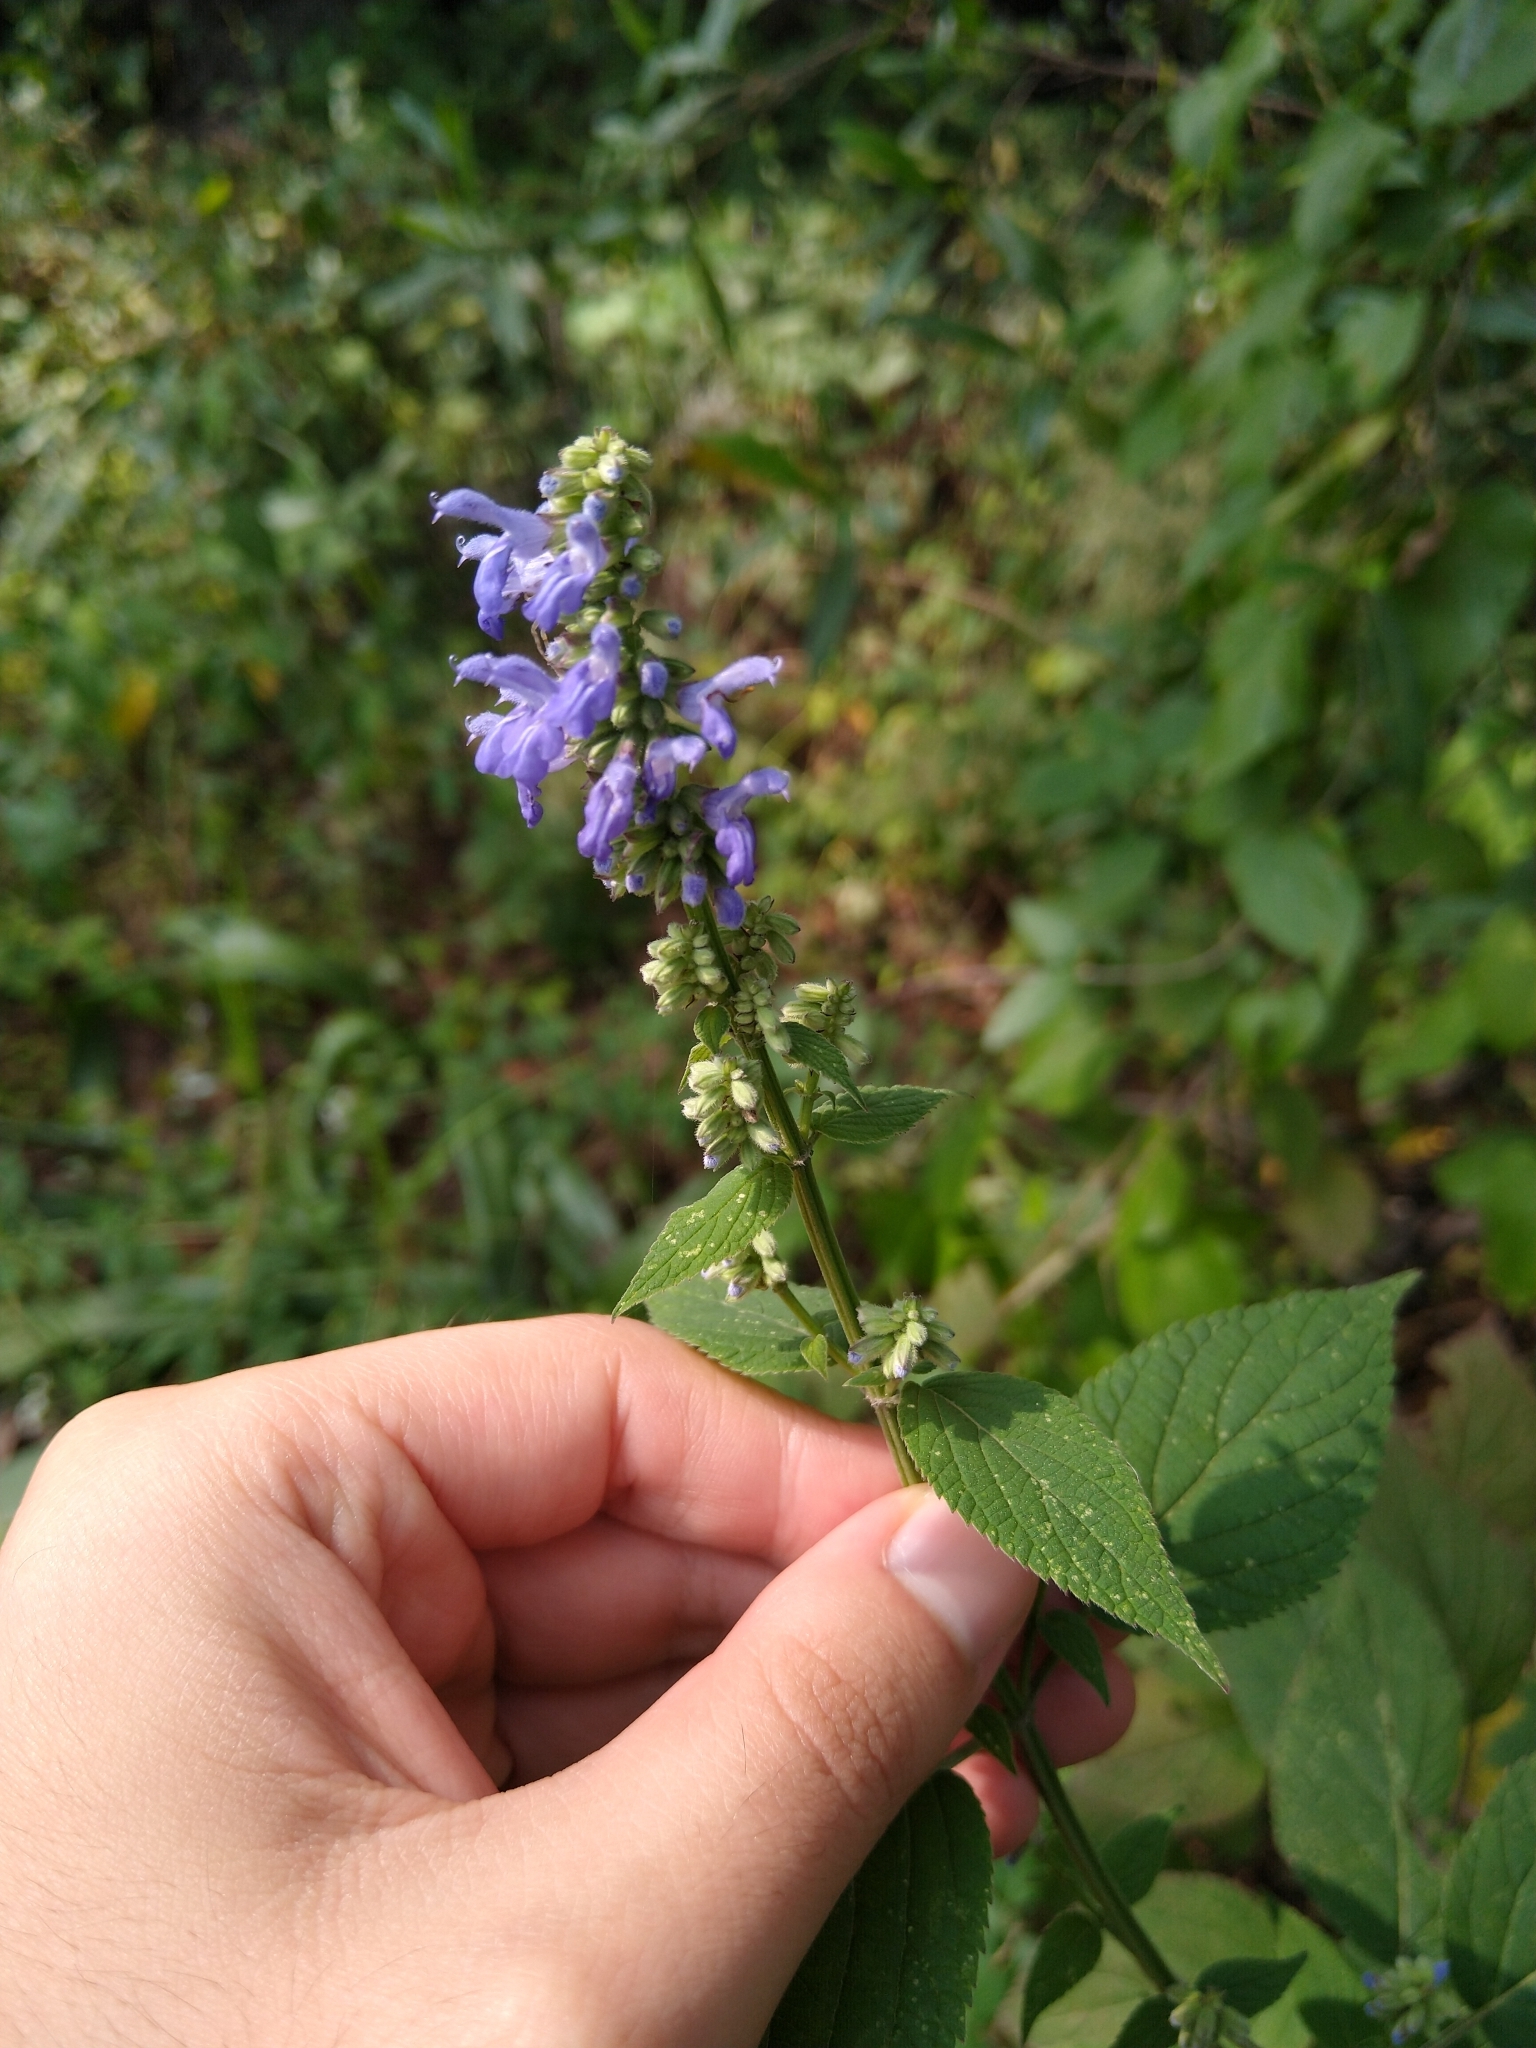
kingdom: Plantae
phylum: Tracheophyta
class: Magnoliopsida
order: Lamiales
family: Lamiaceae
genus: Salvia
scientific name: Salvia polystachia
